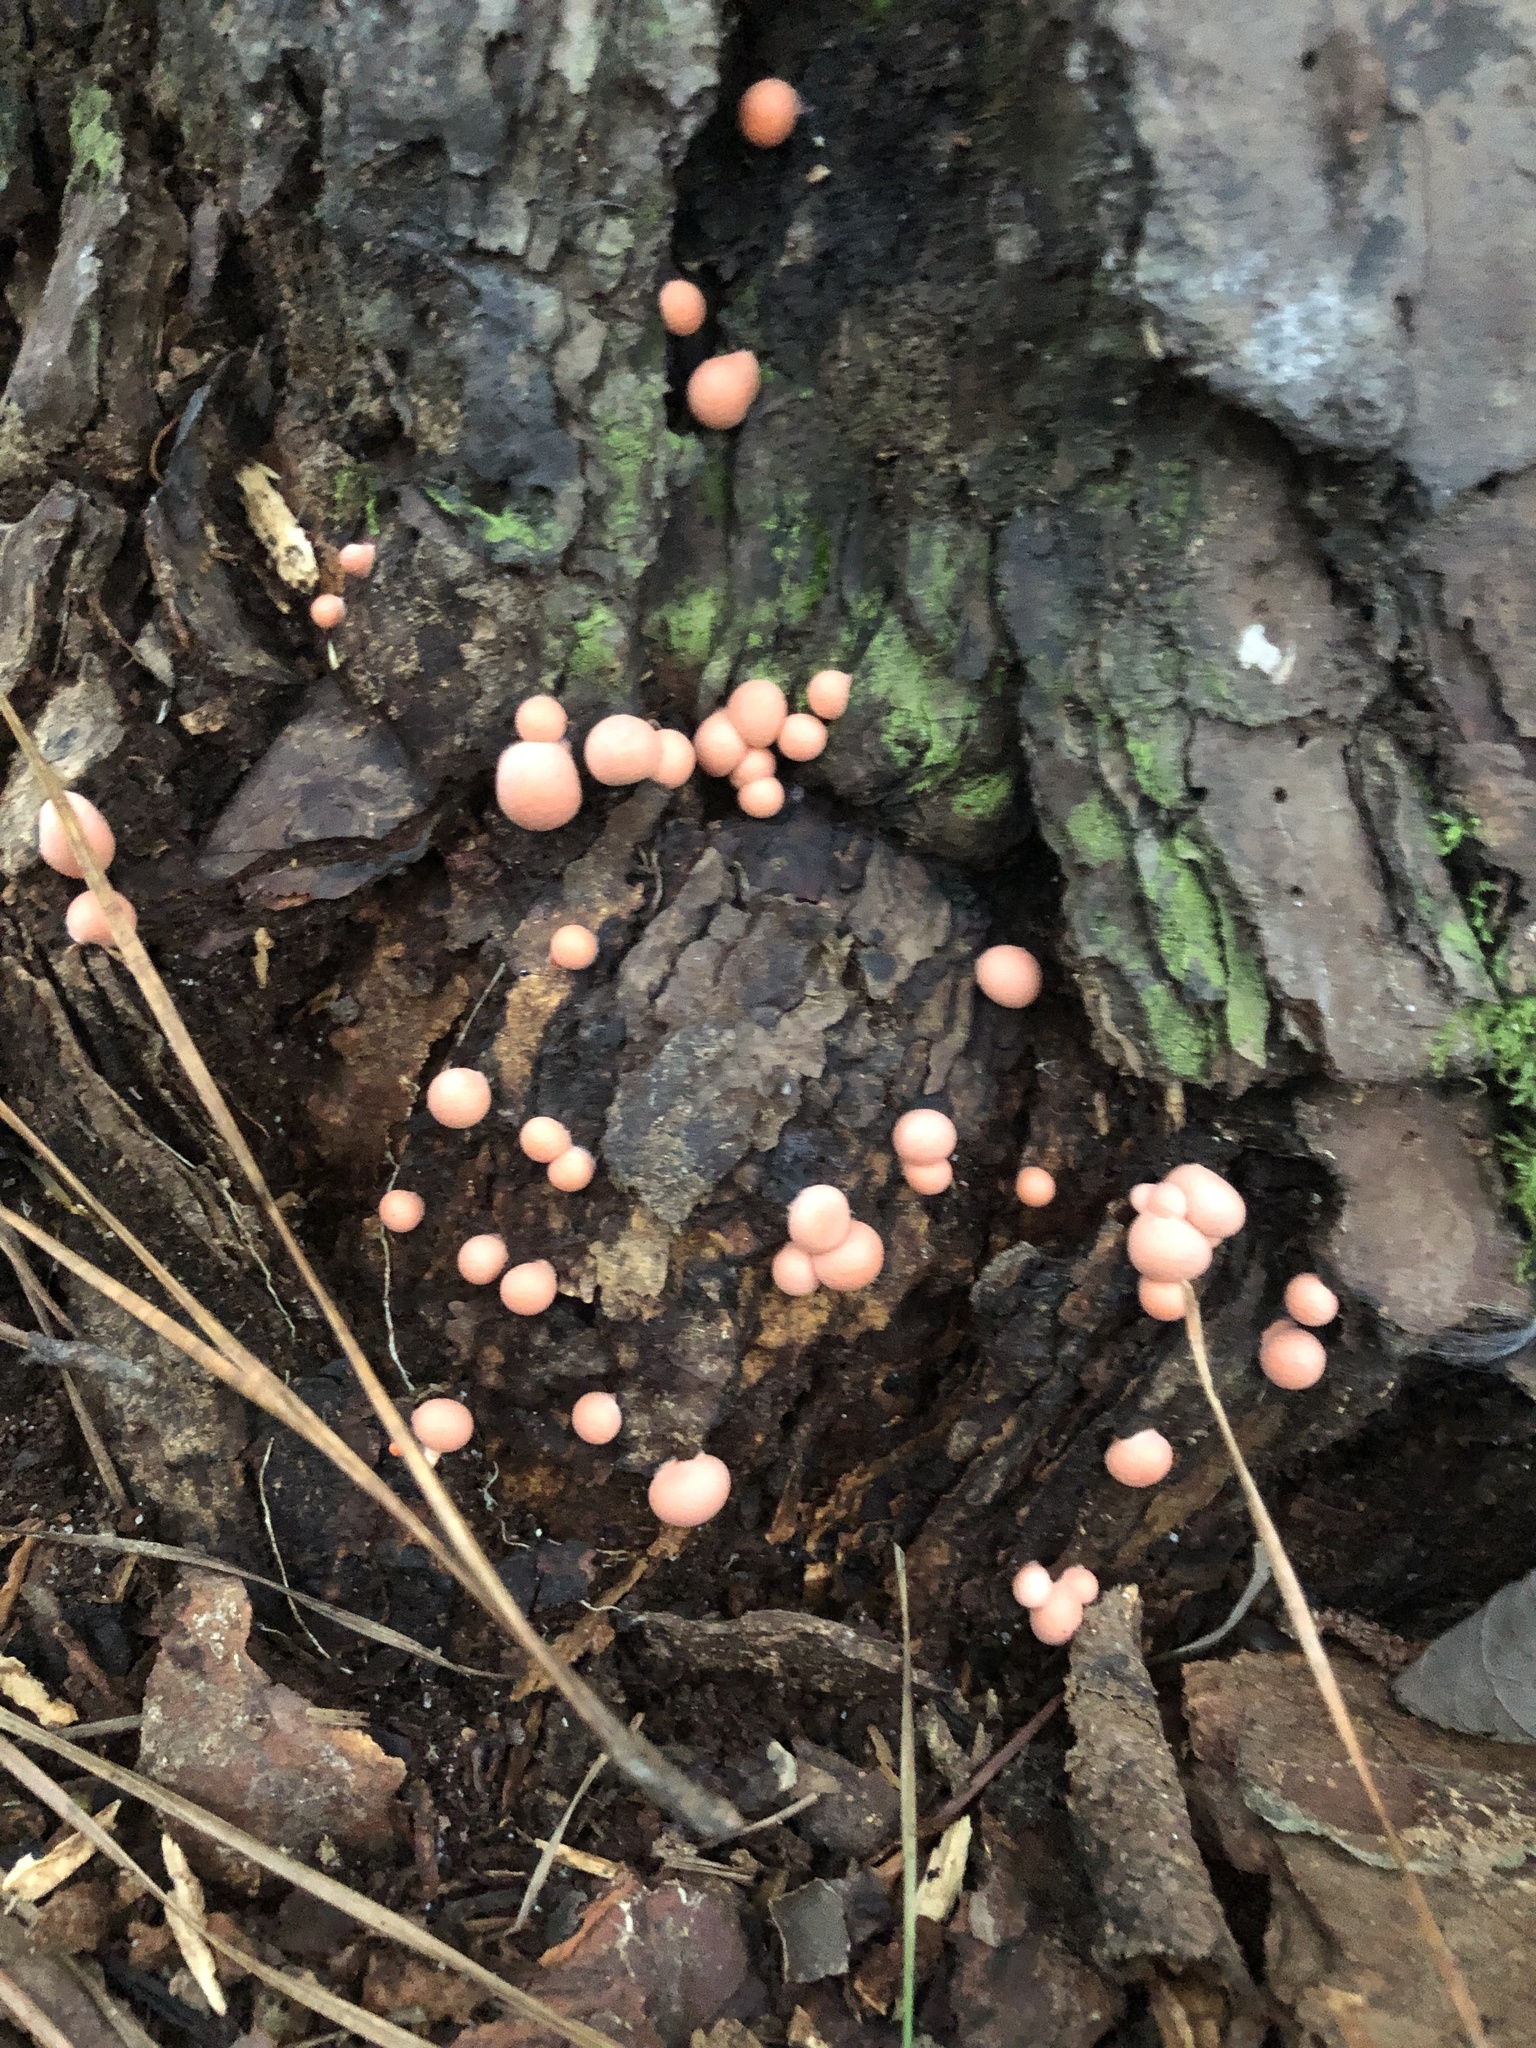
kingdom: Protozoa
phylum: Mycetozoa
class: Myxomycetes
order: Cribrariales
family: Tubiferaceae
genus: Lycogala
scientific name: Lycogala epidendrum
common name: Wolf's milk
